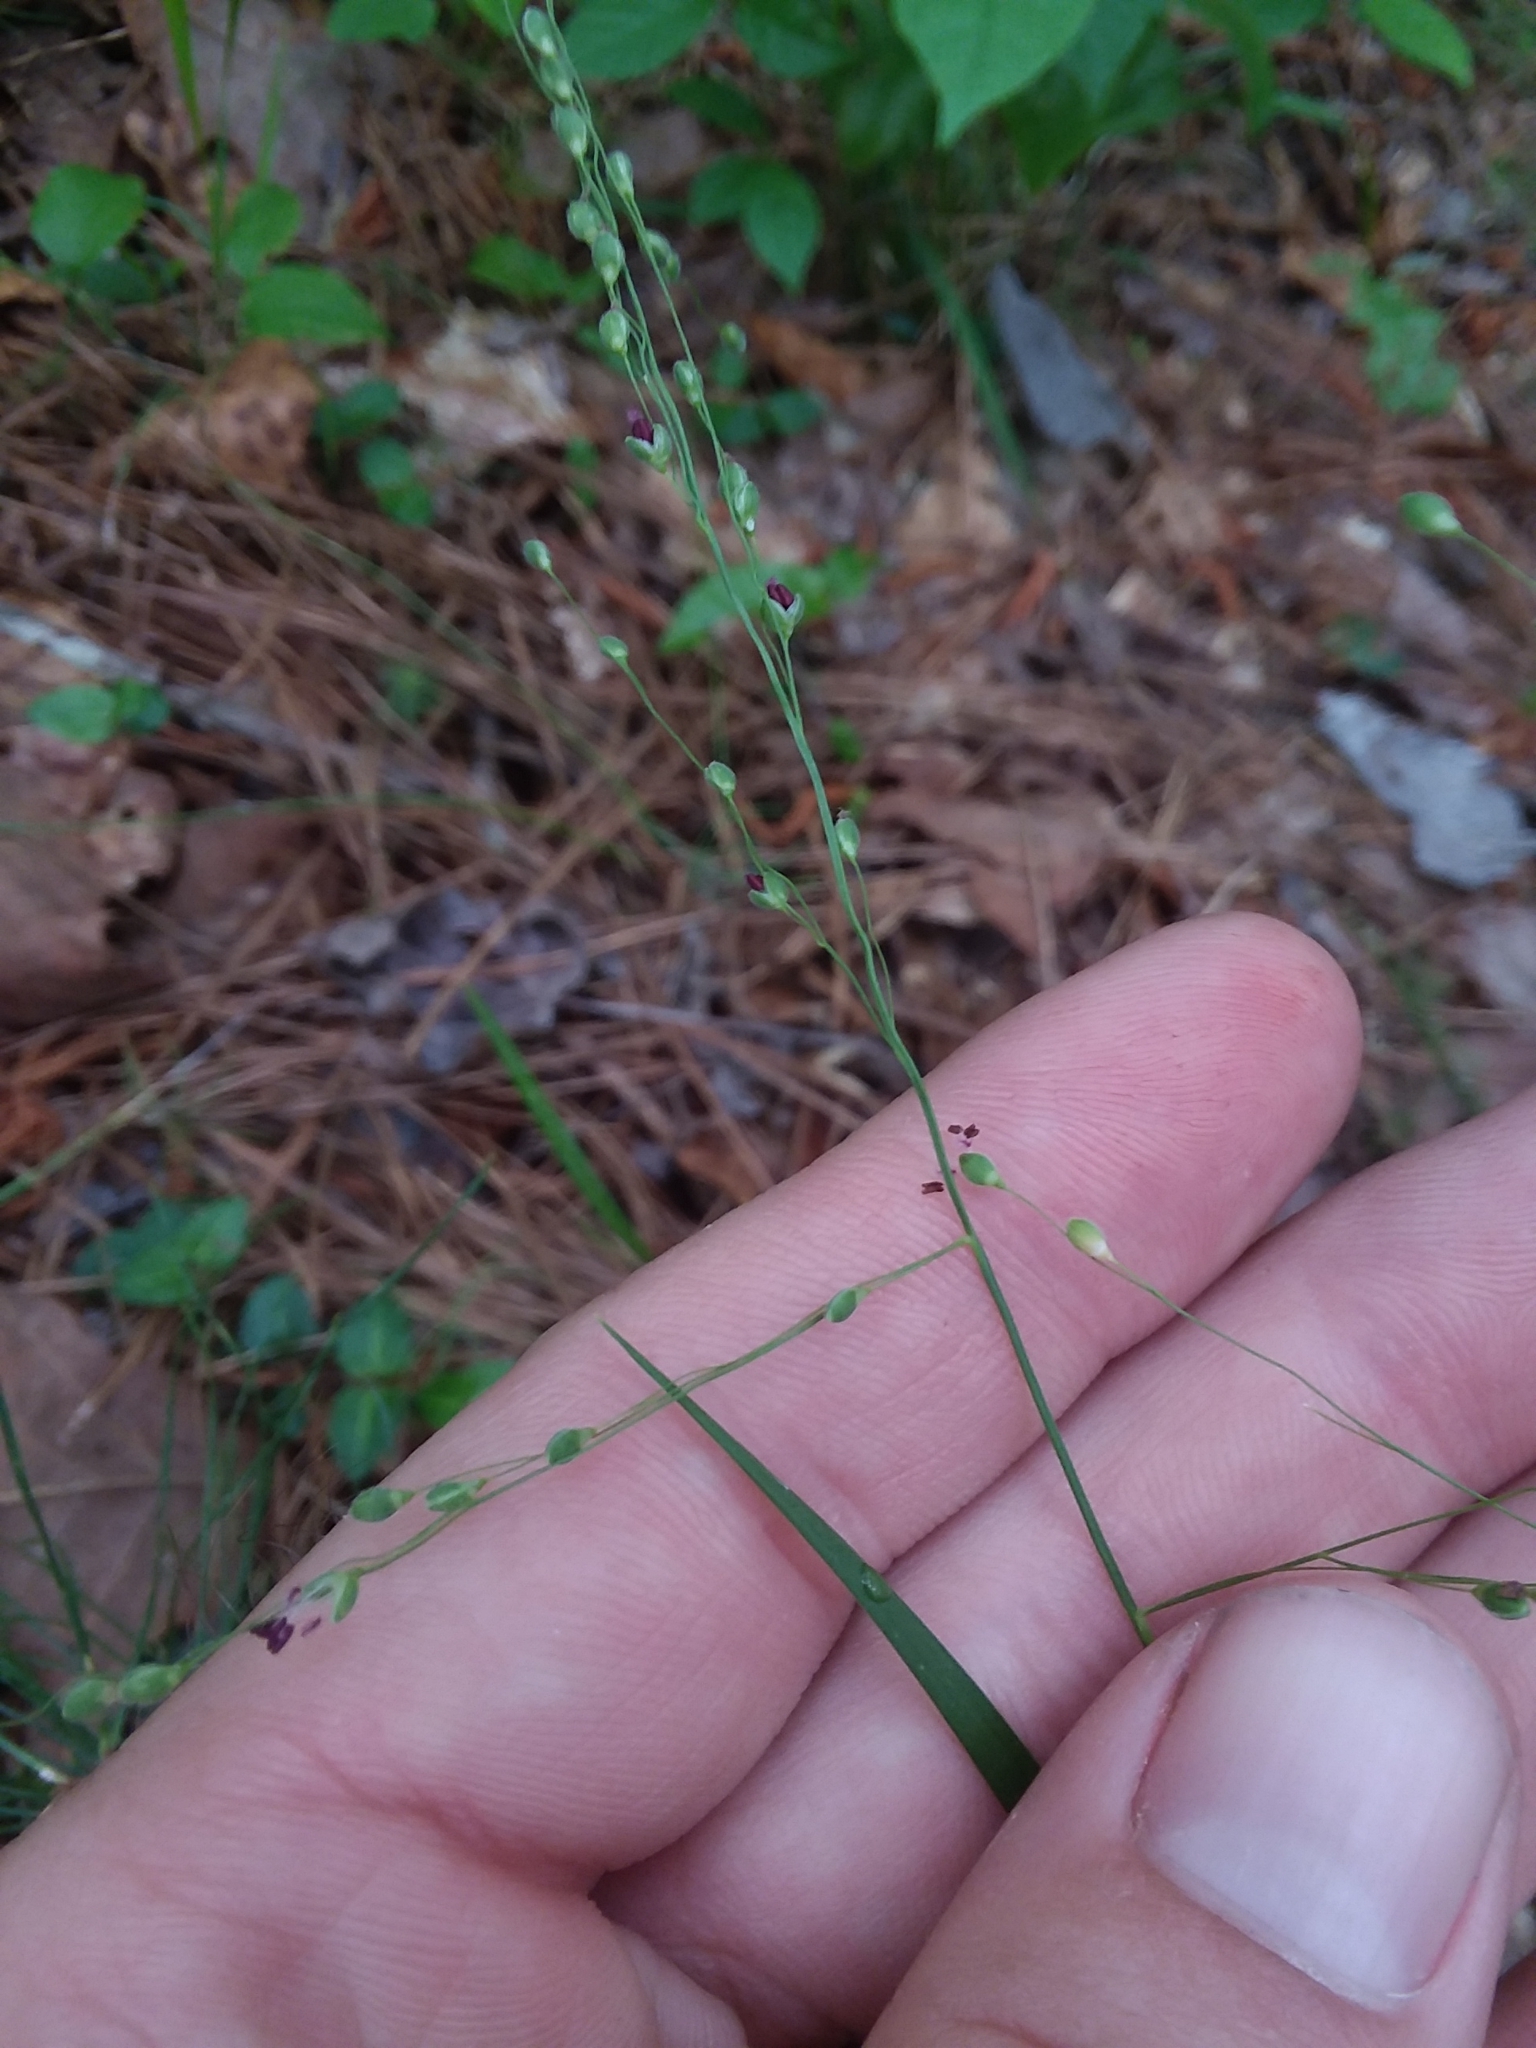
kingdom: Plantae
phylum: Tracheophyta
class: Liliopsida
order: Poales
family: Poaceae
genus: Dichanthelium
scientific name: Dichanthelium angustifolium
